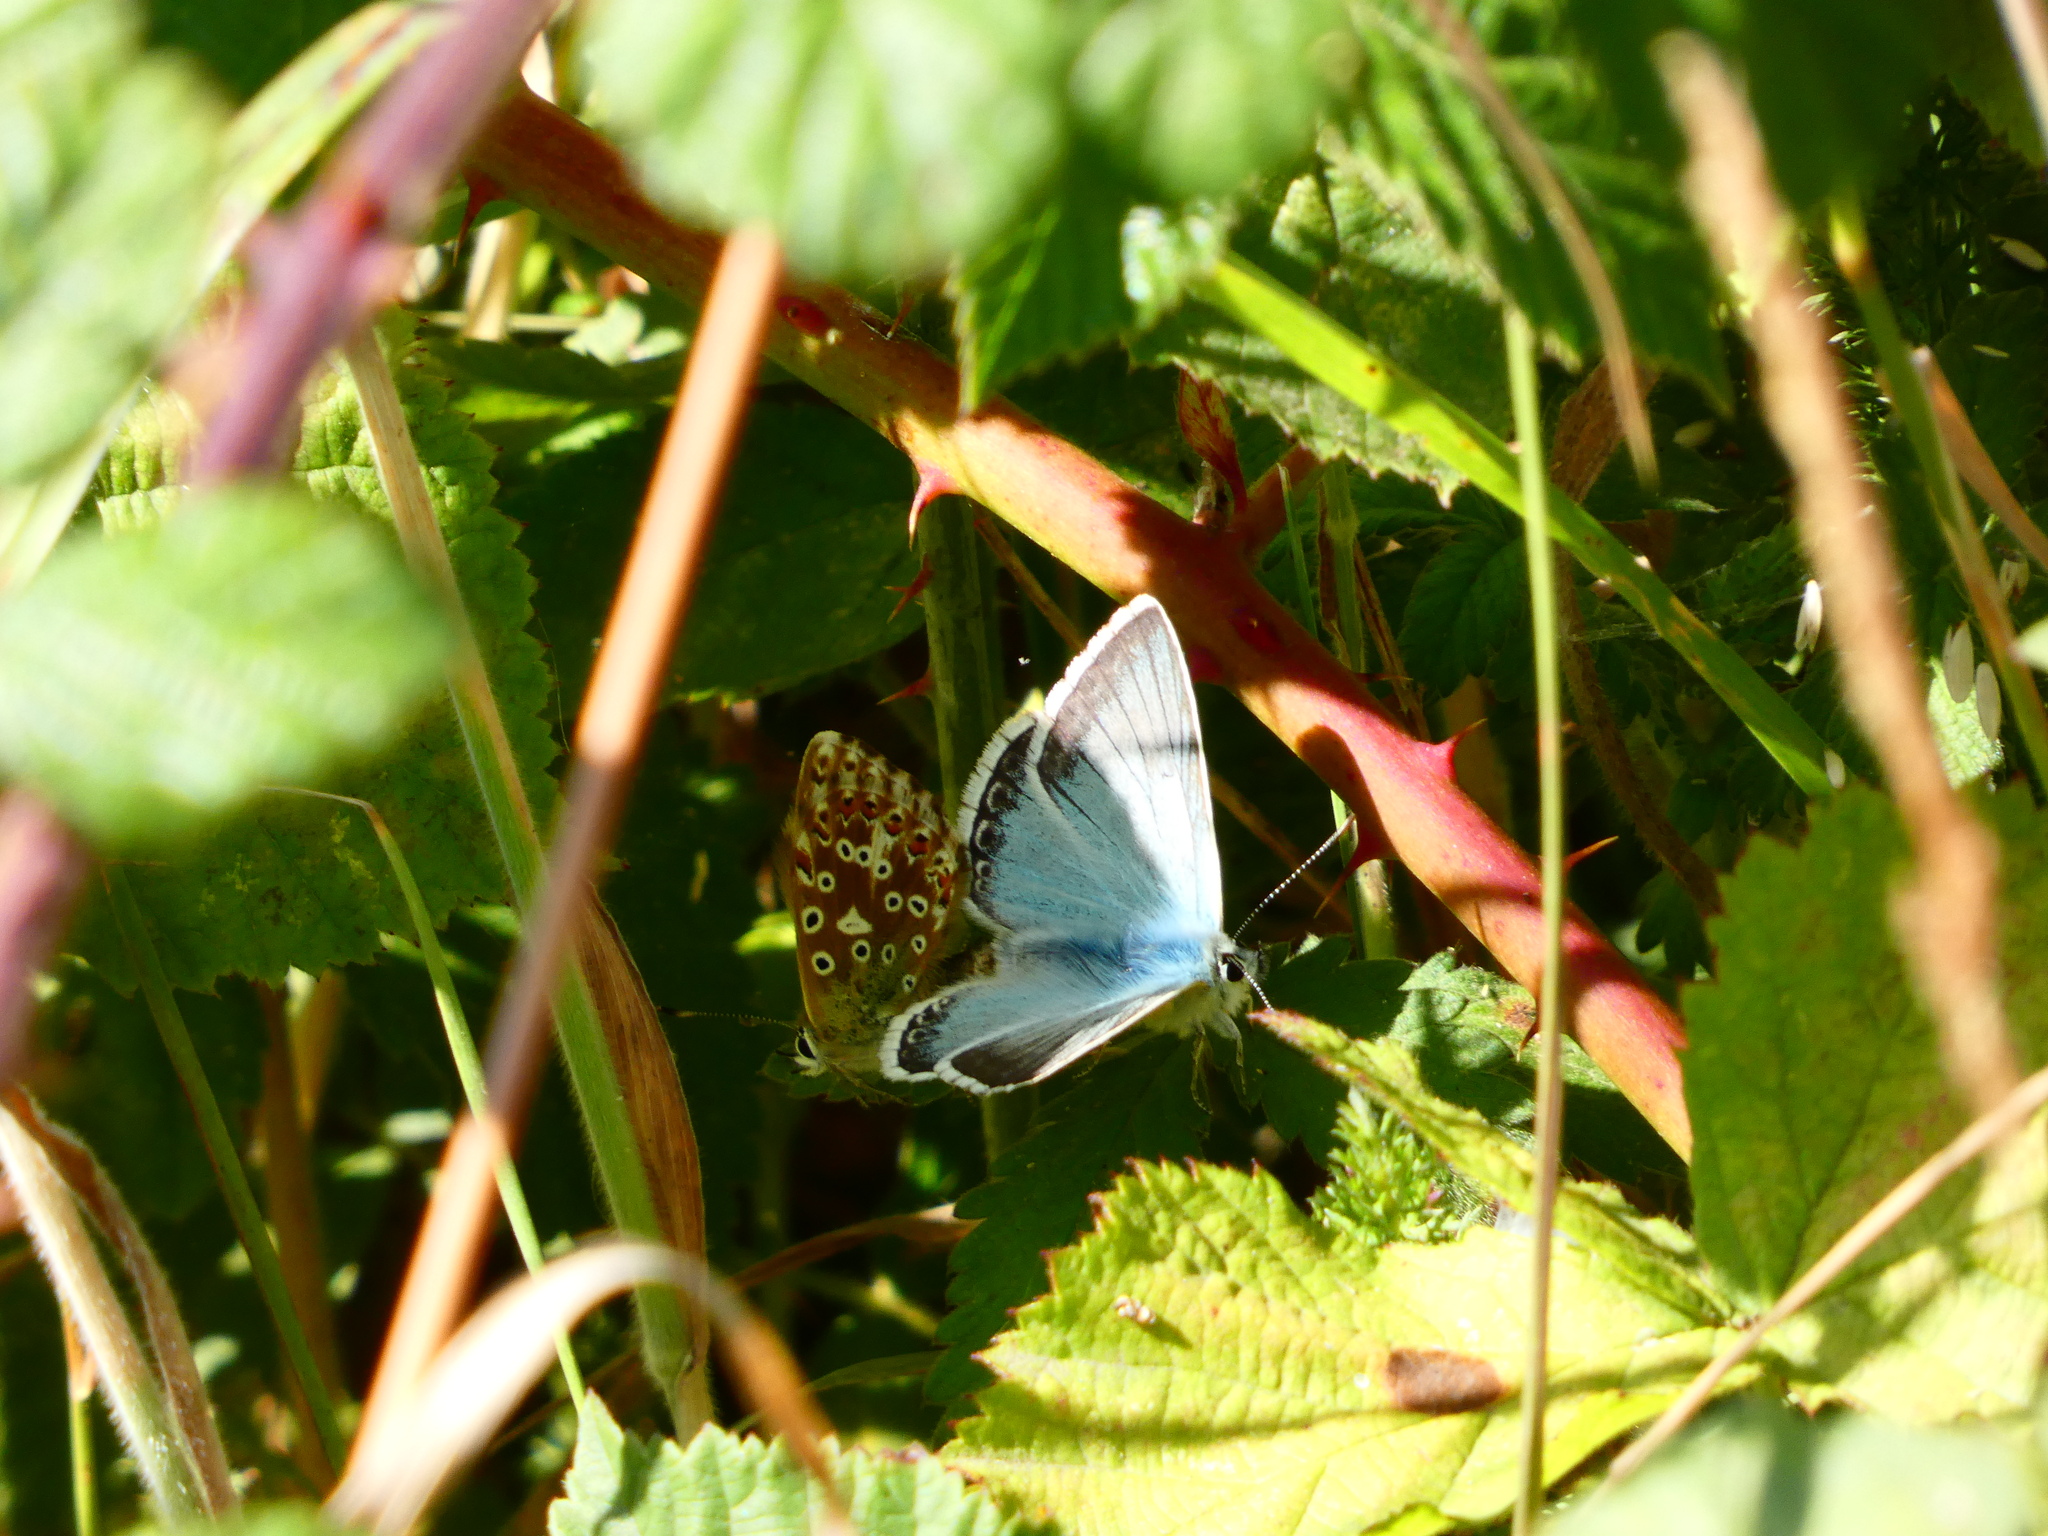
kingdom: Animalia
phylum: Arthropoda
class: Insecta
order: Lepidoptera
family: Lycaenidae
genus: Lysandra
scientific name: Lysandra coridon
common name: Chalkhill blue
